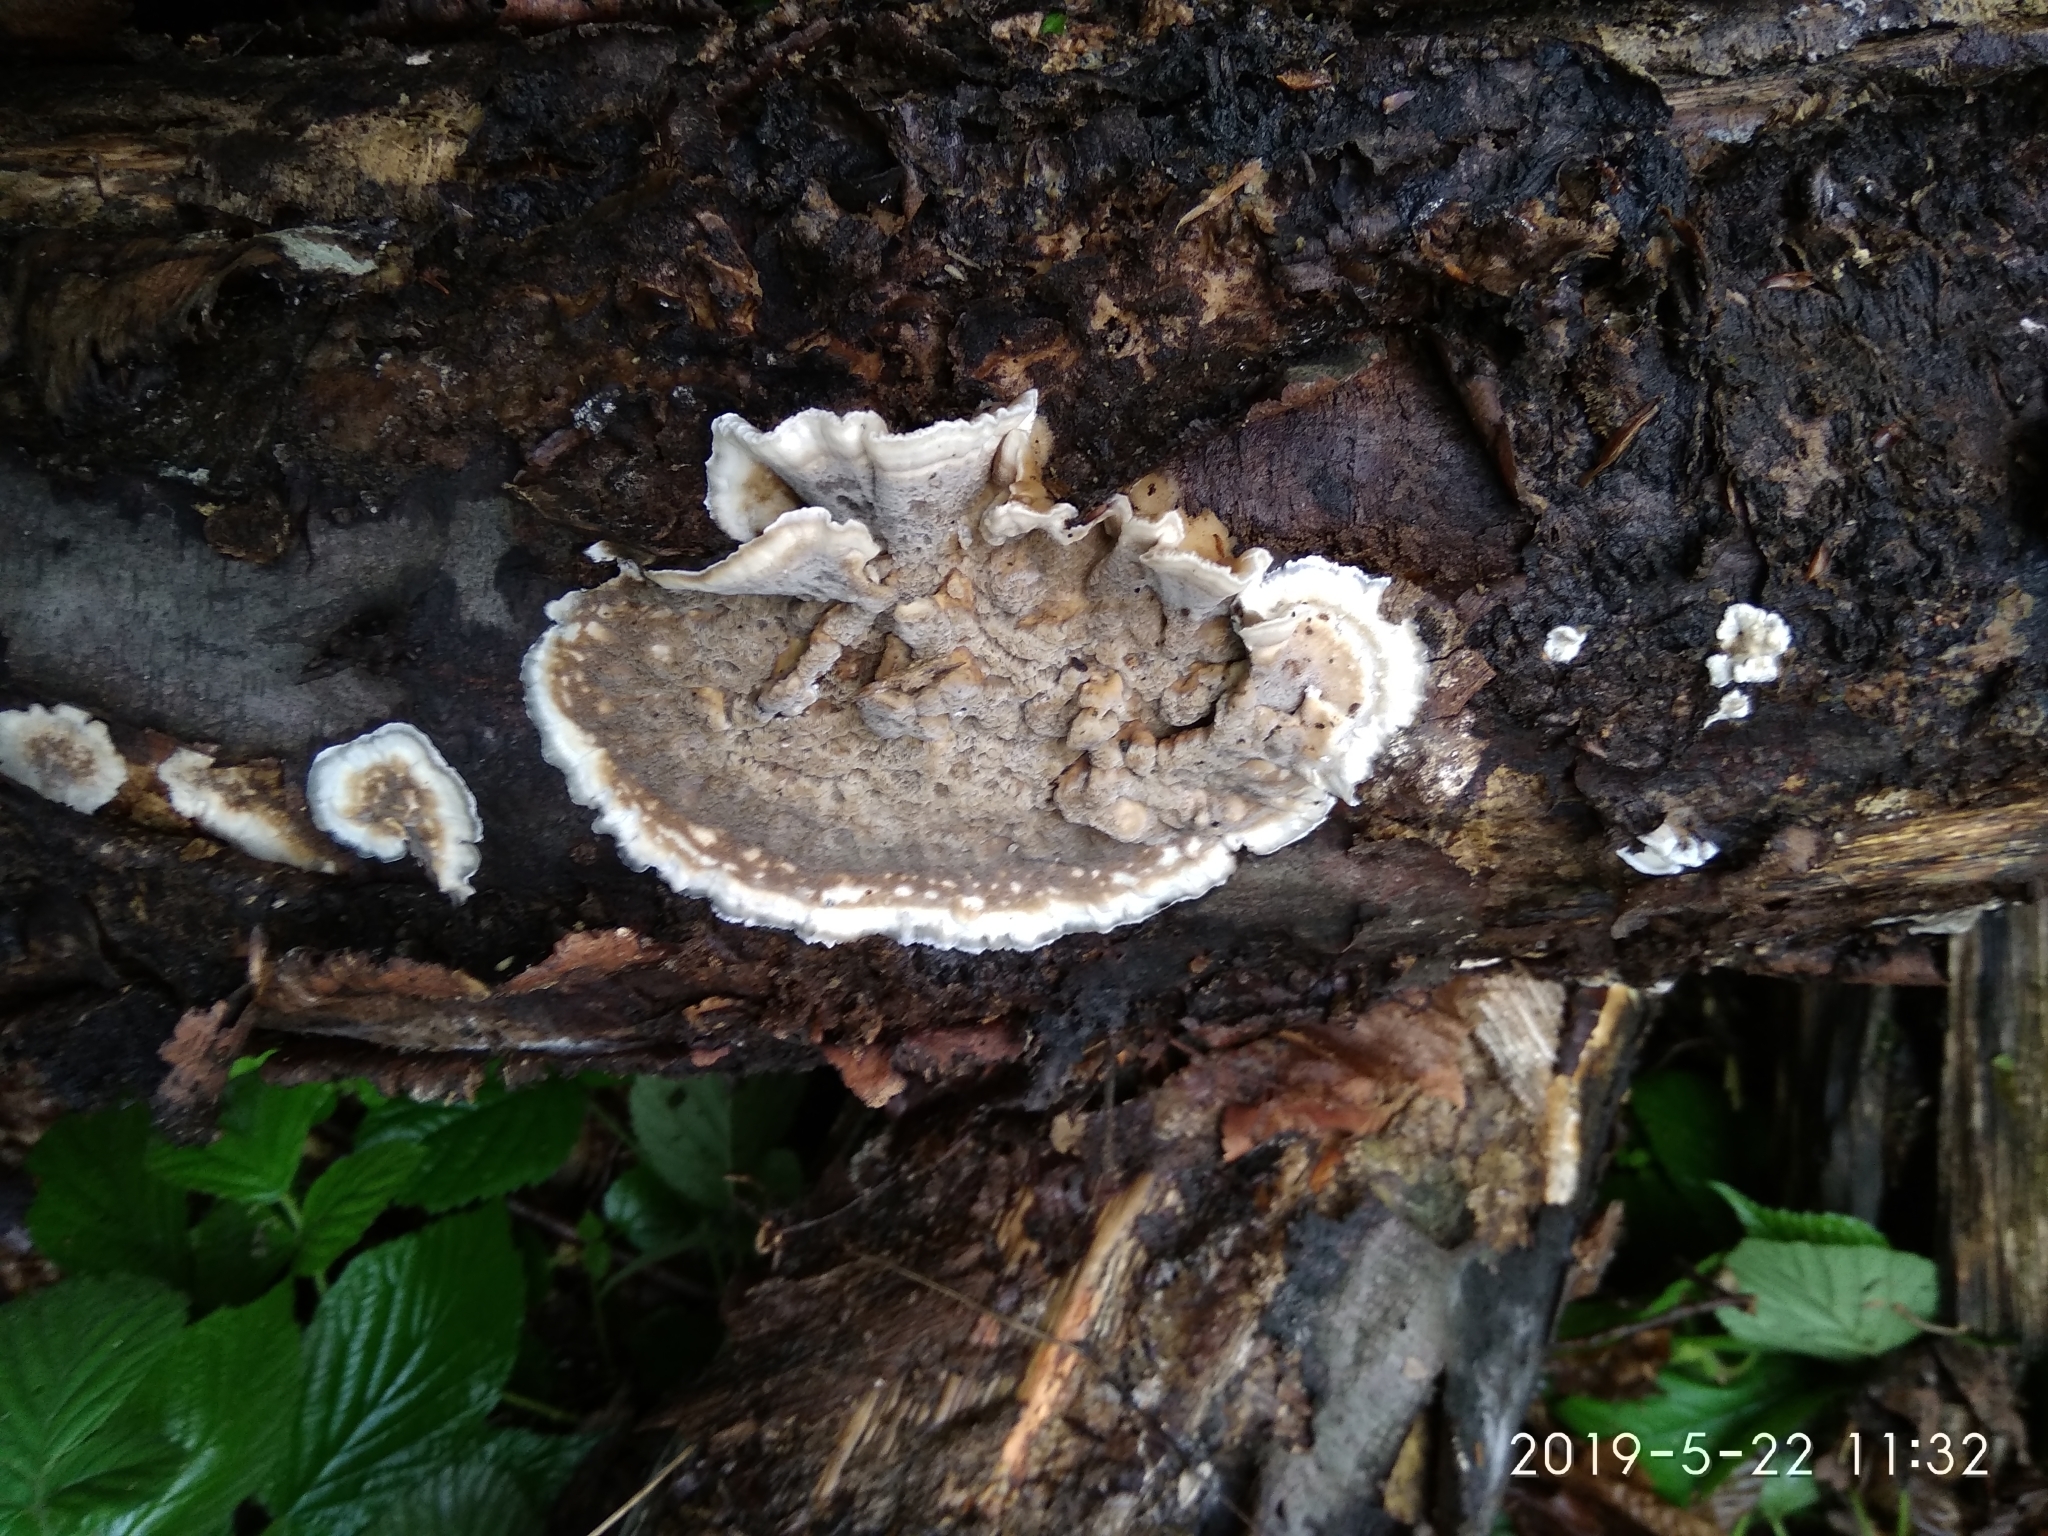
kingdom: Fungi
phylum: Basidiomycota
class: Agaricomycetes
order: Polyporales
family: Phanerochaetaceae
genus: Bjerkandera
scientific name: Bjerkandera adusta
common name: Smoky bracket
